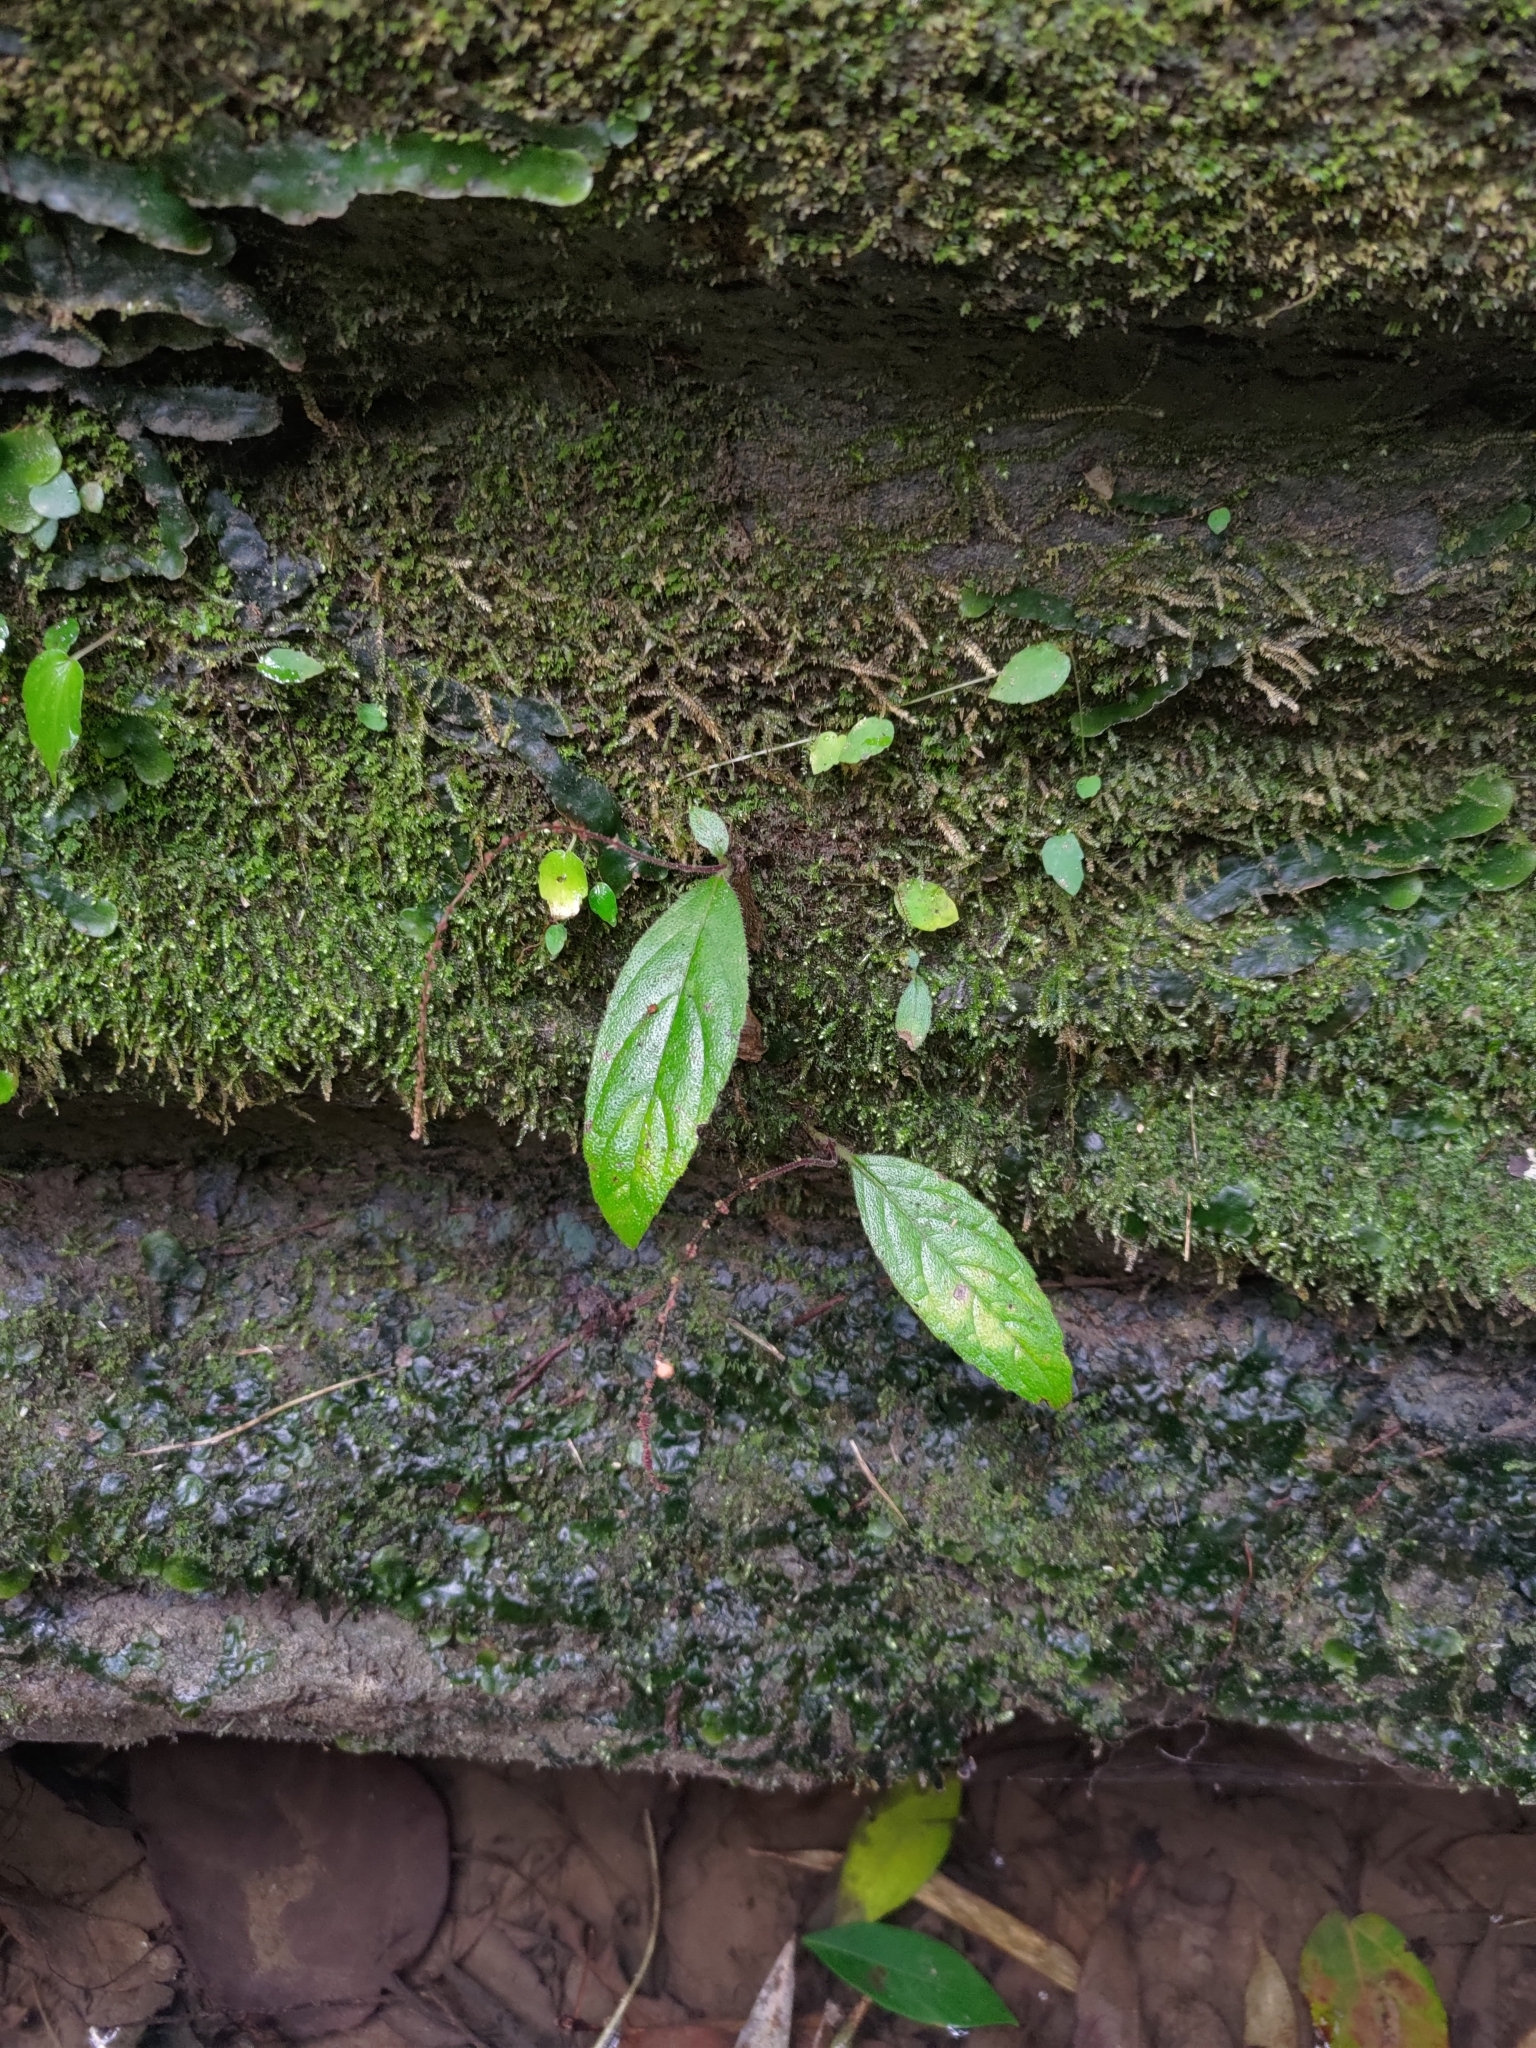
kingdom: Plantae
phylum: Tracheophyta
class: Magnoliopsida
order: Lamiales
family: Gesneriaceae
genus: Titanotrichum
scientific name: Titanotrichum oldhamii
